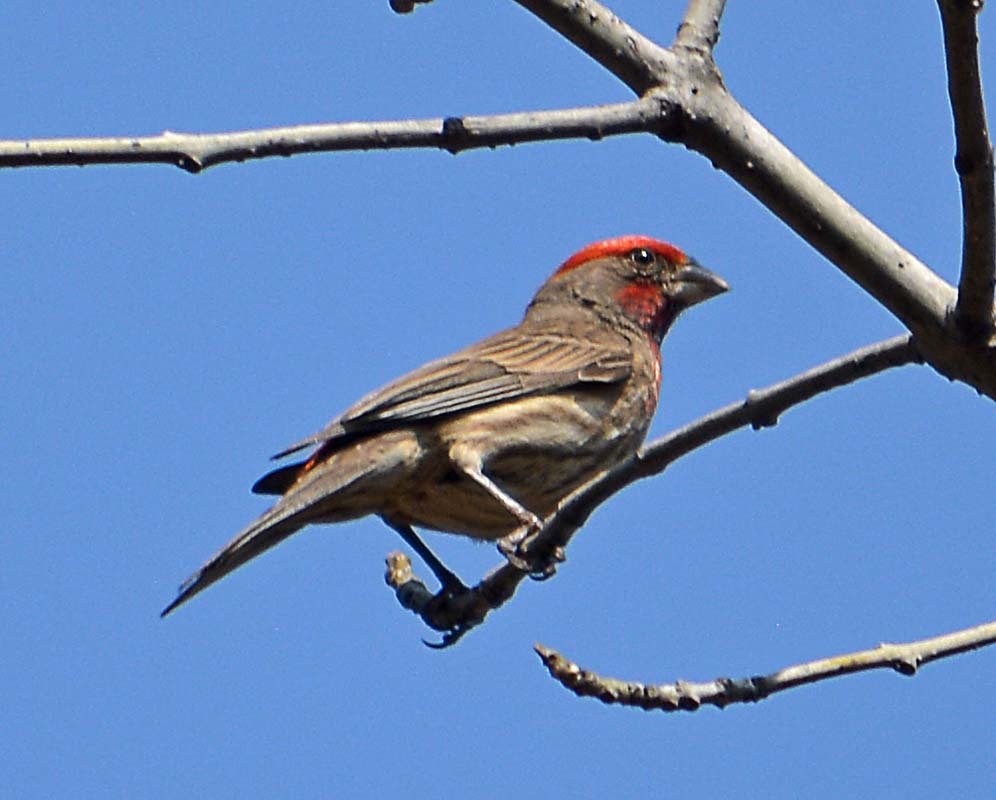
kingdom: Animalia
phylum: Chordata
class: Aves
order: Passeriformes
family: Fringillidae
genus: Haemorhous
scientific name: Haemorhous mexicanus
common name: House finch
